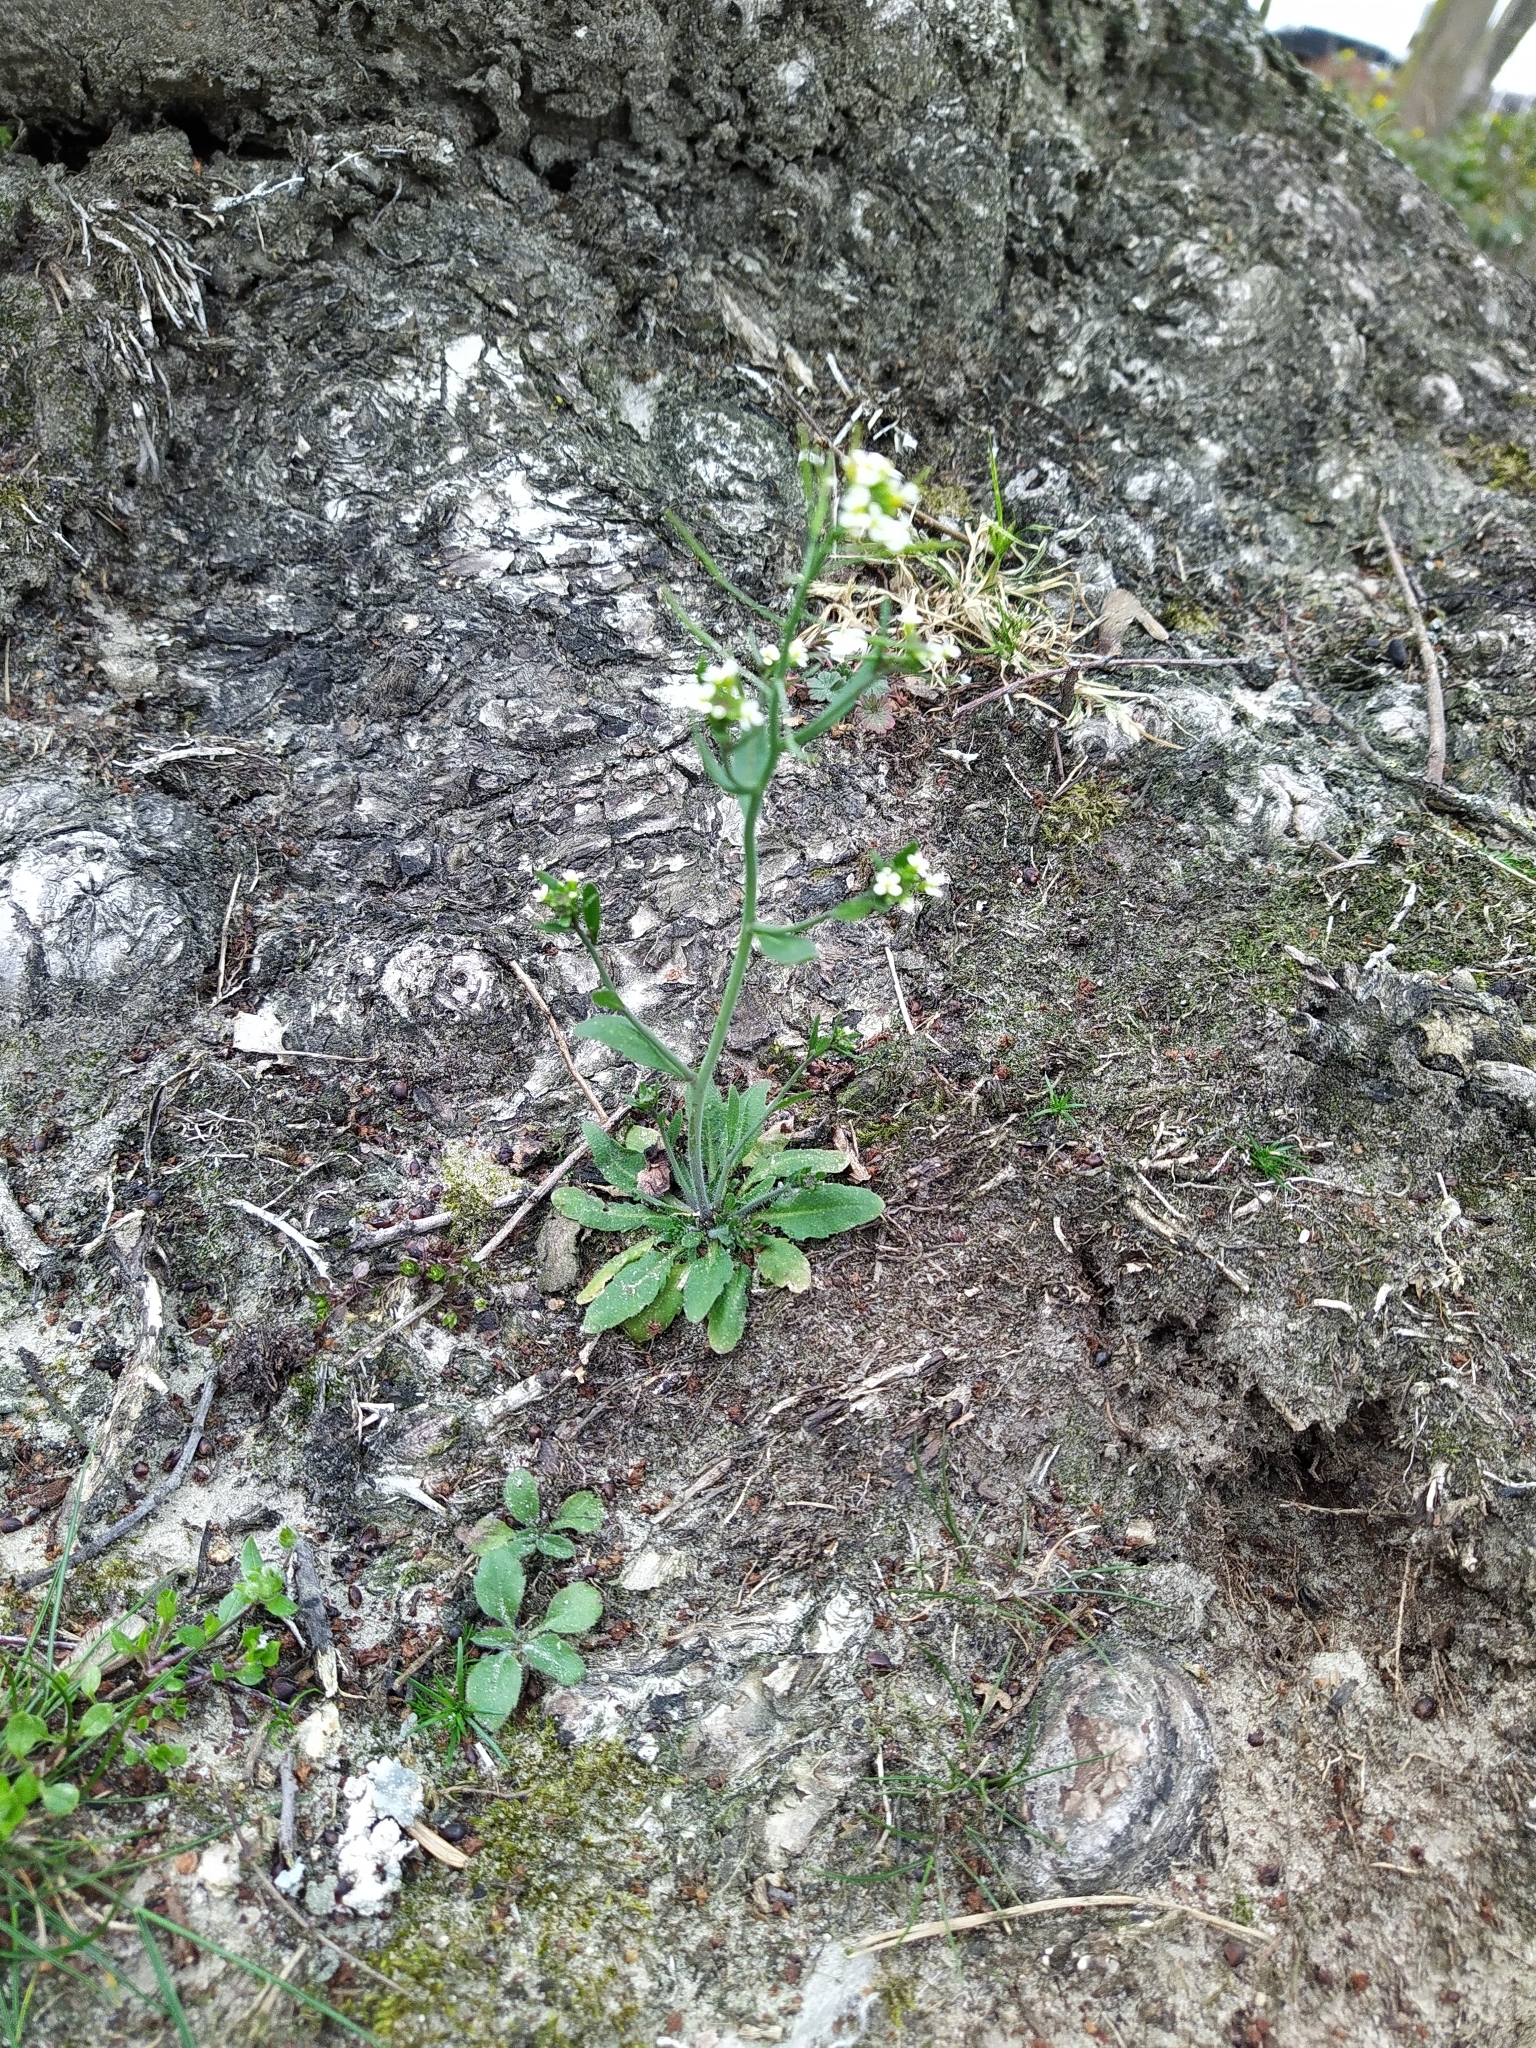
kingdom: Plantae
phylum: Tracheophyta
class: Magnoliopsida
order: Brassicales
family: Brassicaceae
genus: Arabidopsis
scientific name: Arabidopsis thaliana
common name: Thale cress
